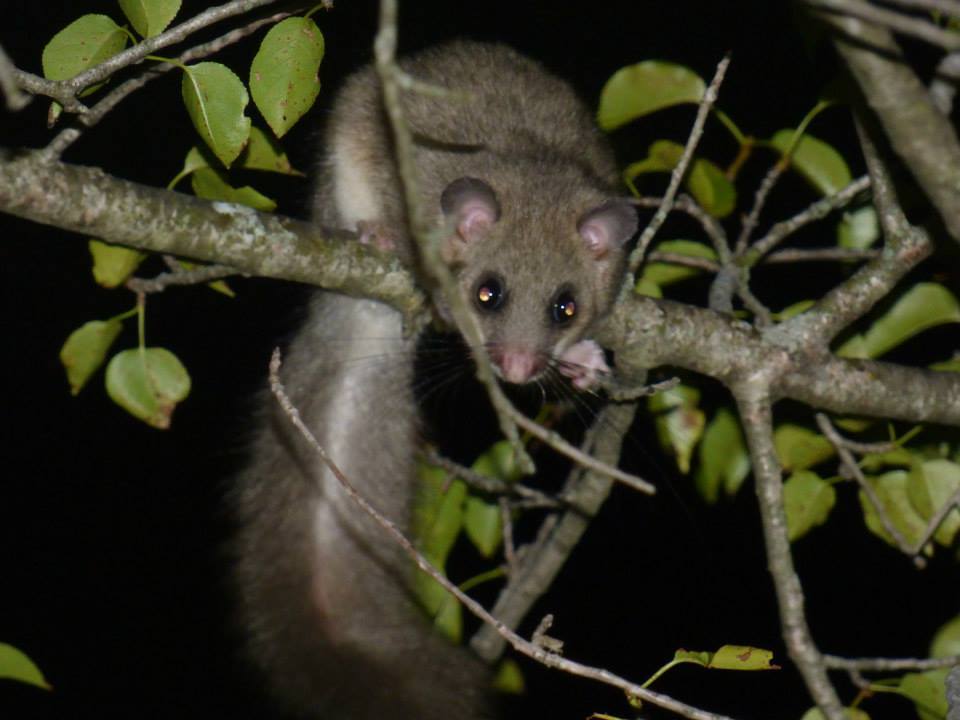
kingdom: Animalia
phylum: Chordata
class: Mammalia
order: Rodentia
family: Gliridae
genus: Glis
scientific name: Glis glis
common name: Fat dormouse
